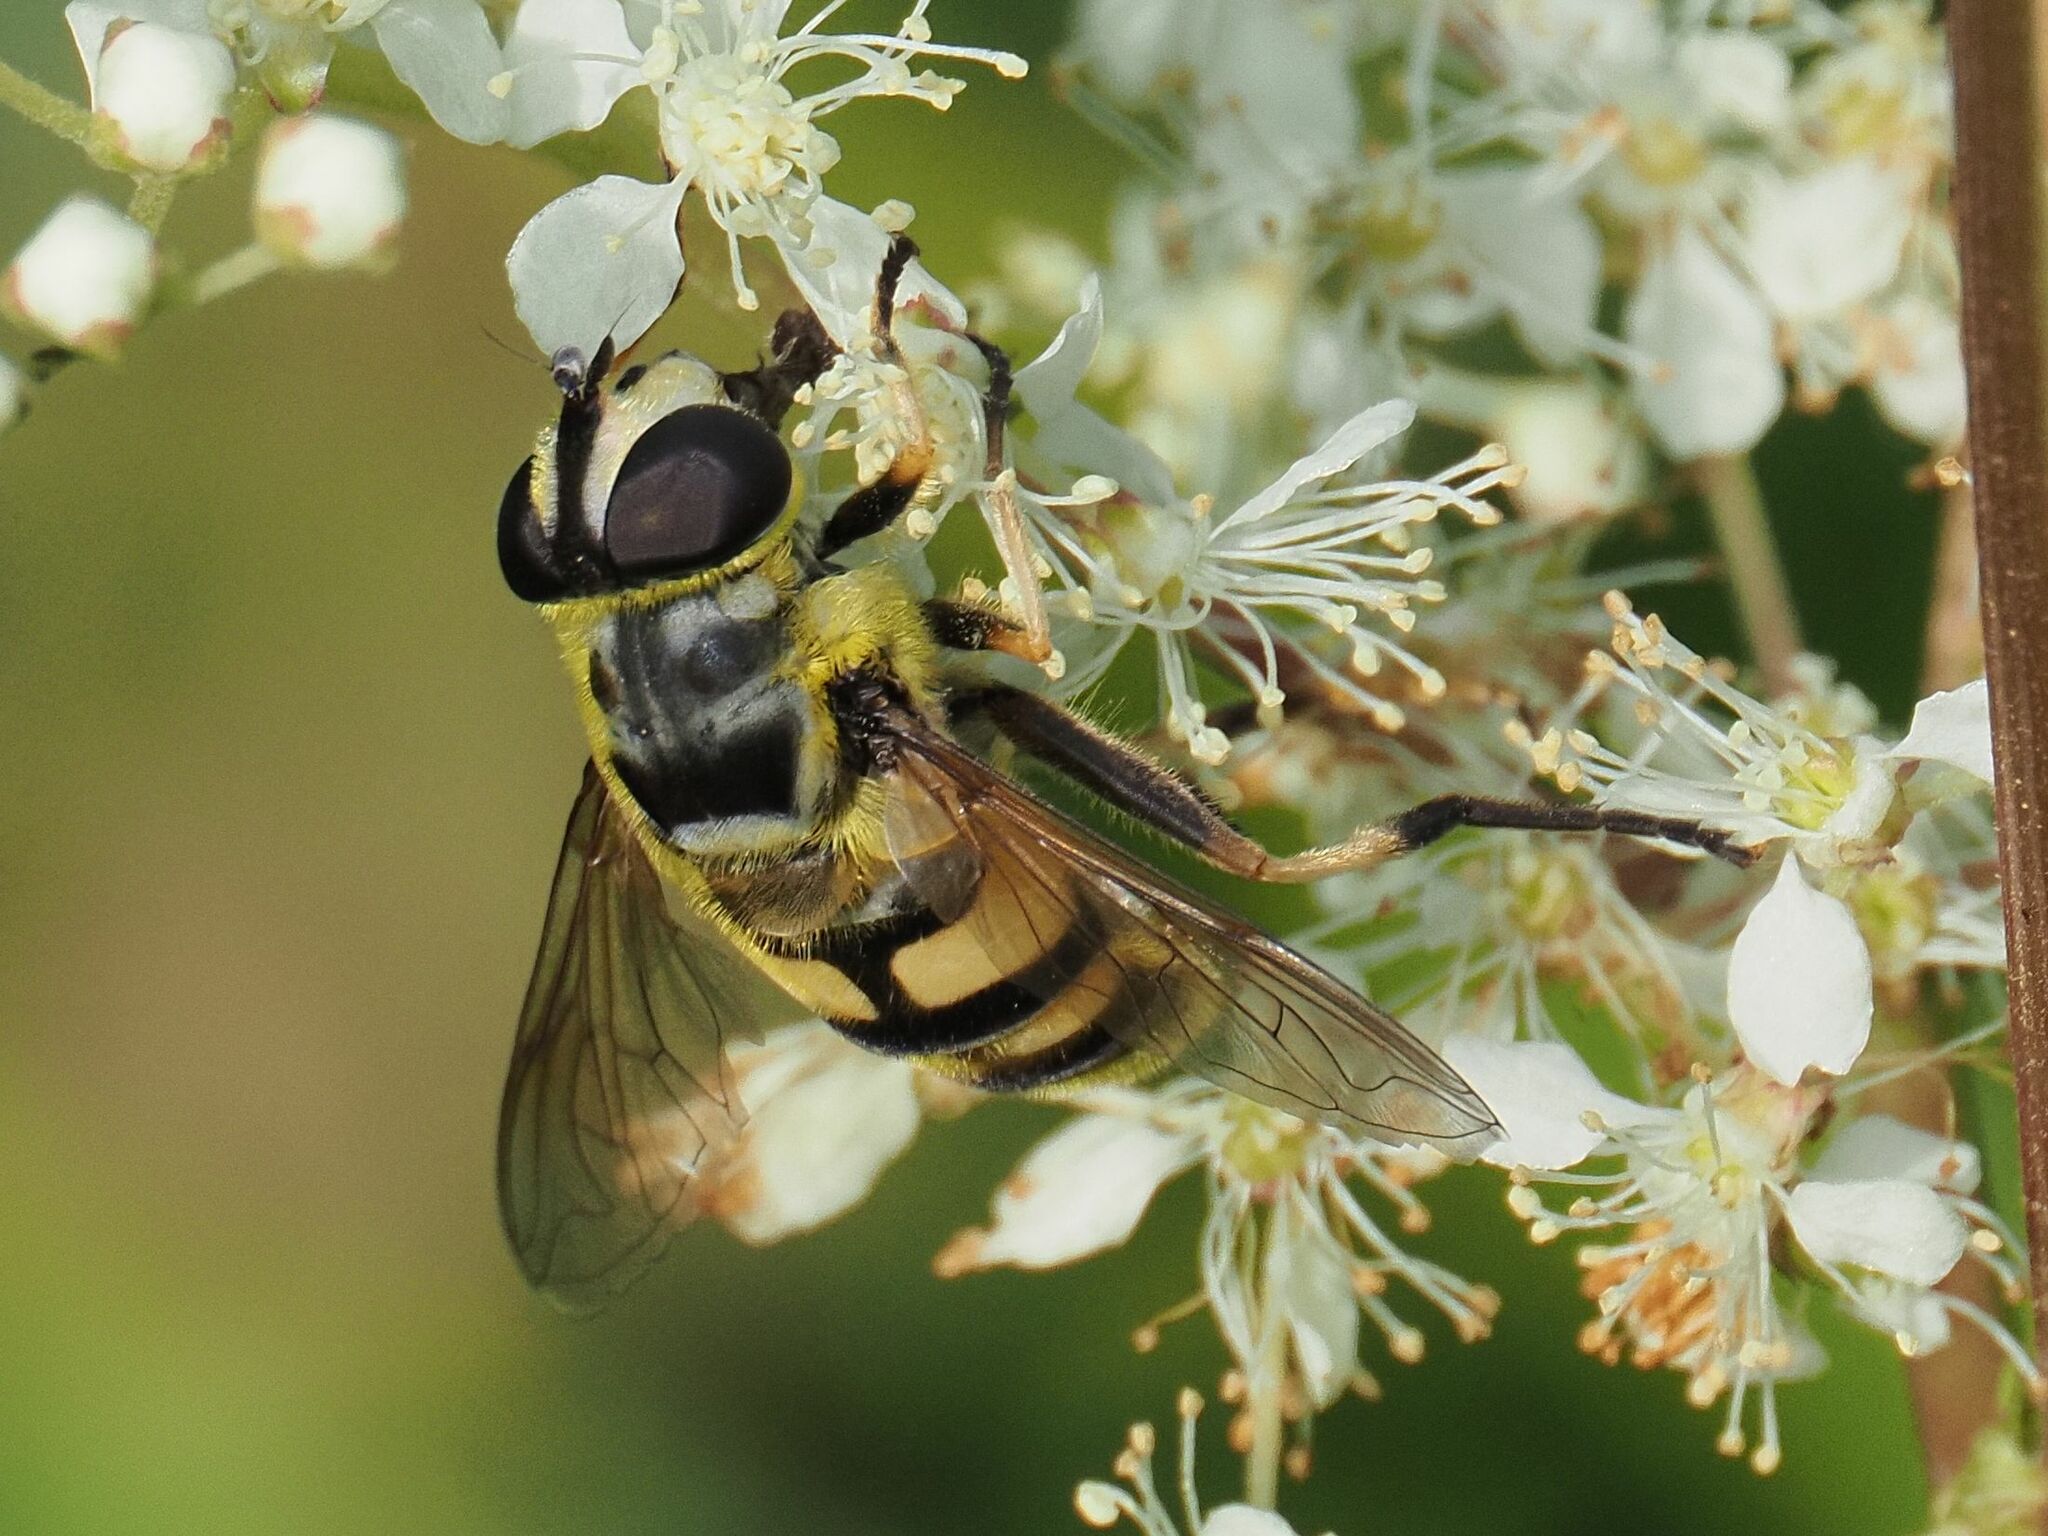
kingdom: Animalia
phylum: Arthropoda
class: Insecta
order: Diptera
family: Syrphidae
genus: Myathropa
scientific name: Myathropa florea
